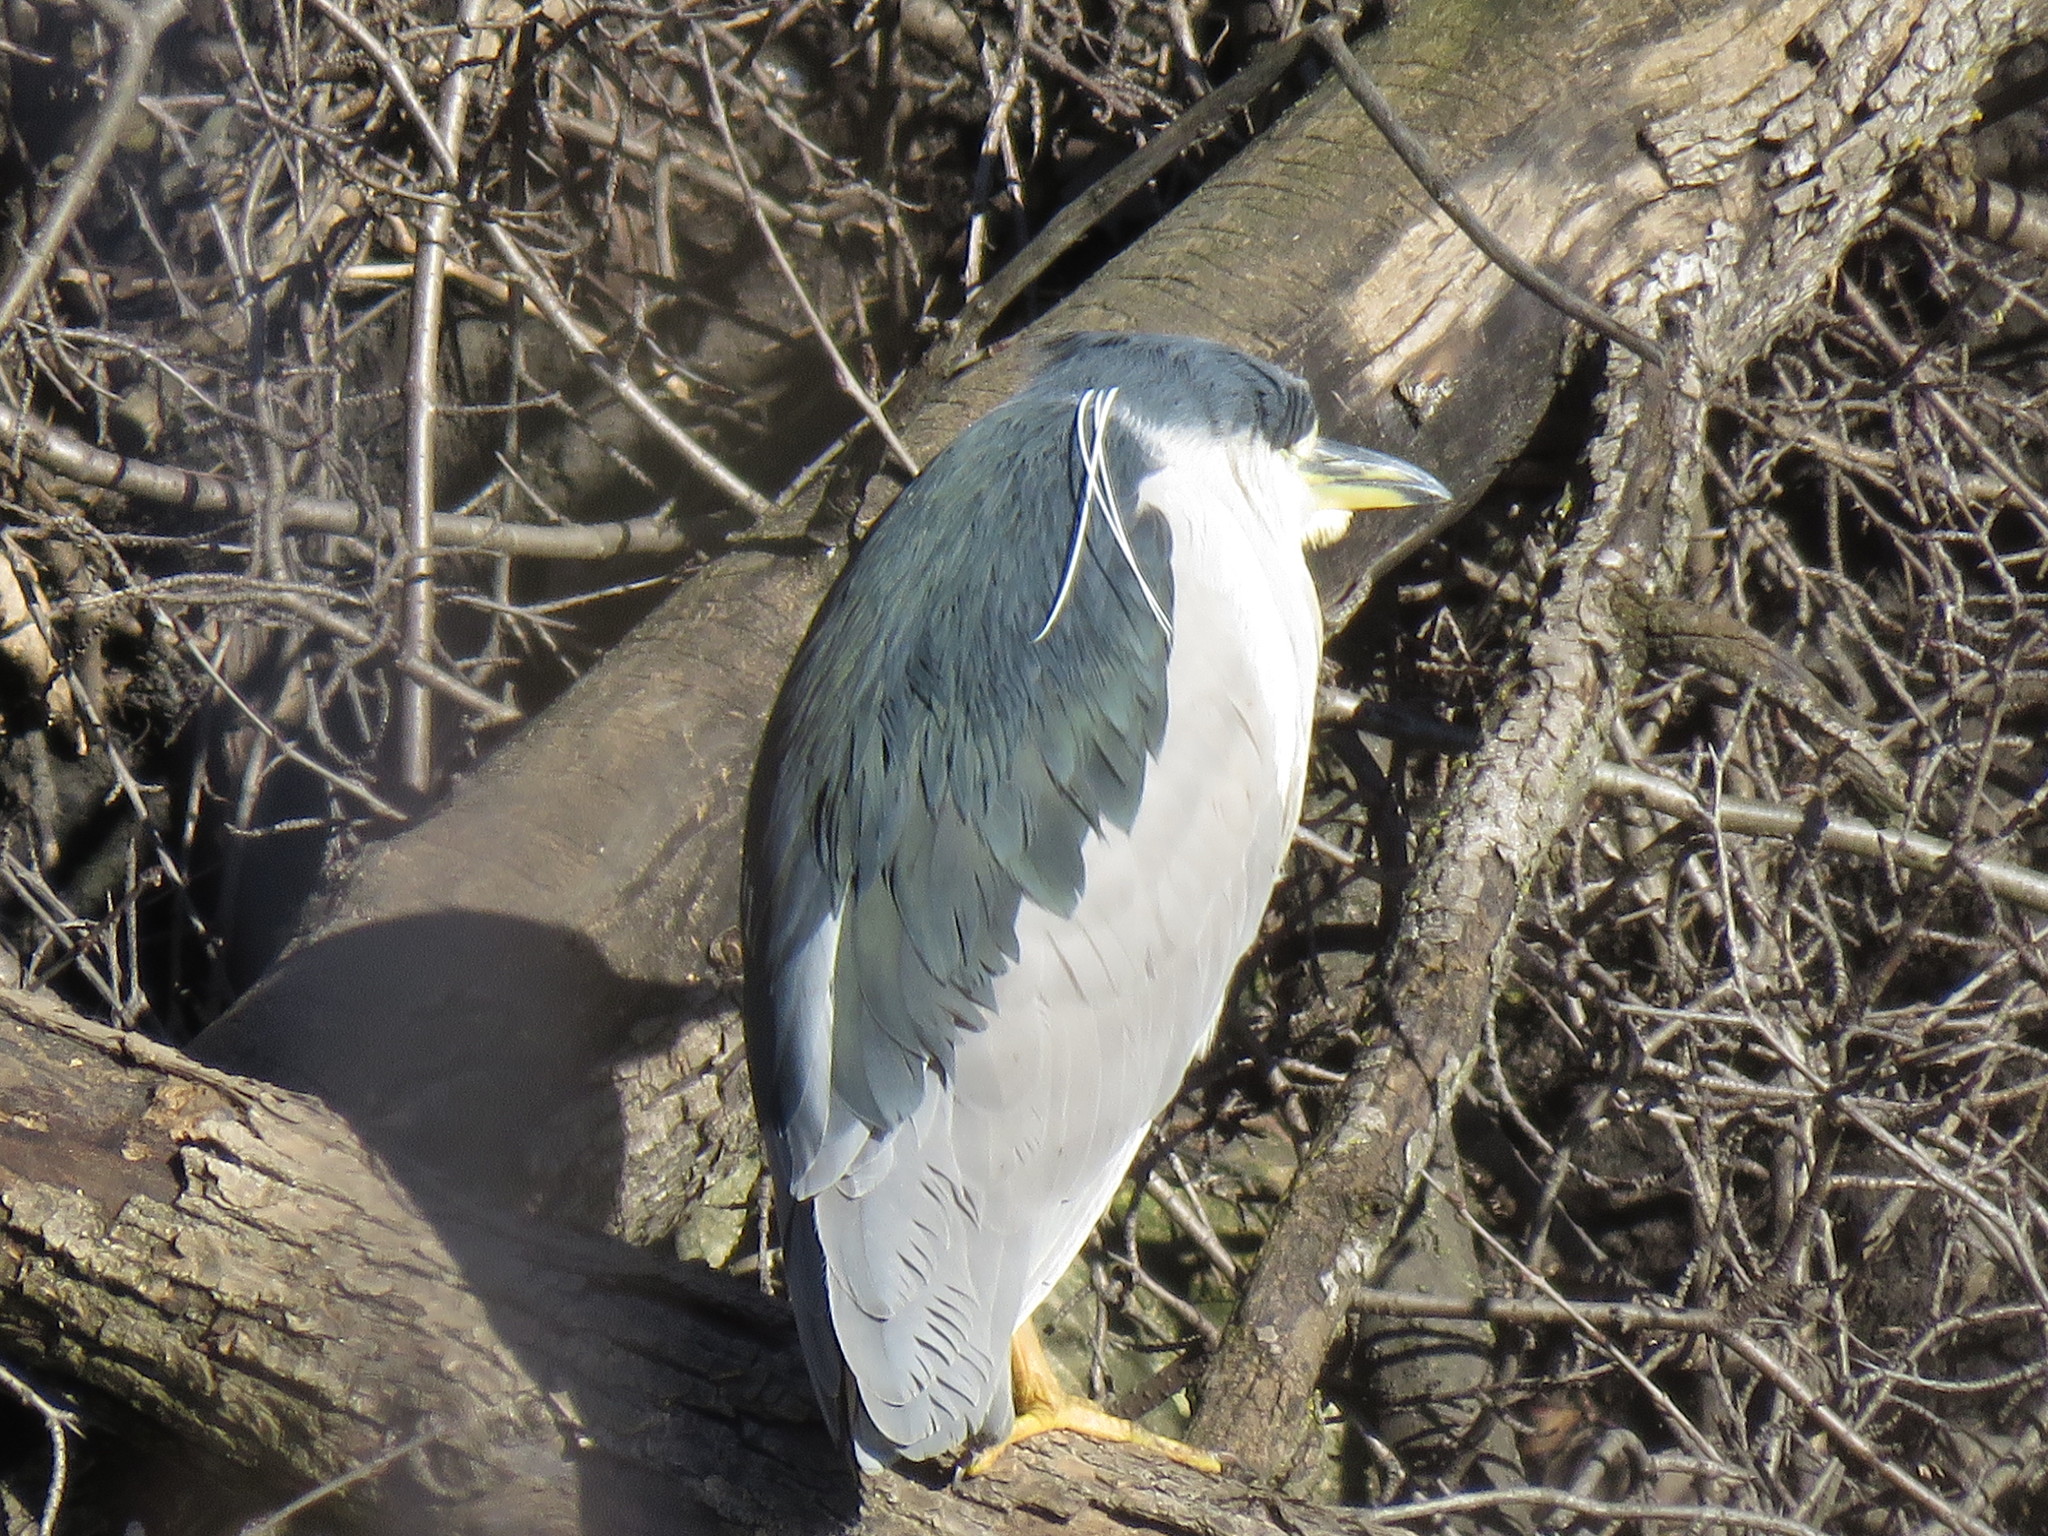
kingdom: Animalia
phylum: Chordata
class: Aves
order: Pelecaniformes
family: Ardeidae
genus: Nycticorax
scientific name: Nycticorax nycticorax
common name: Black-crowned night heron
